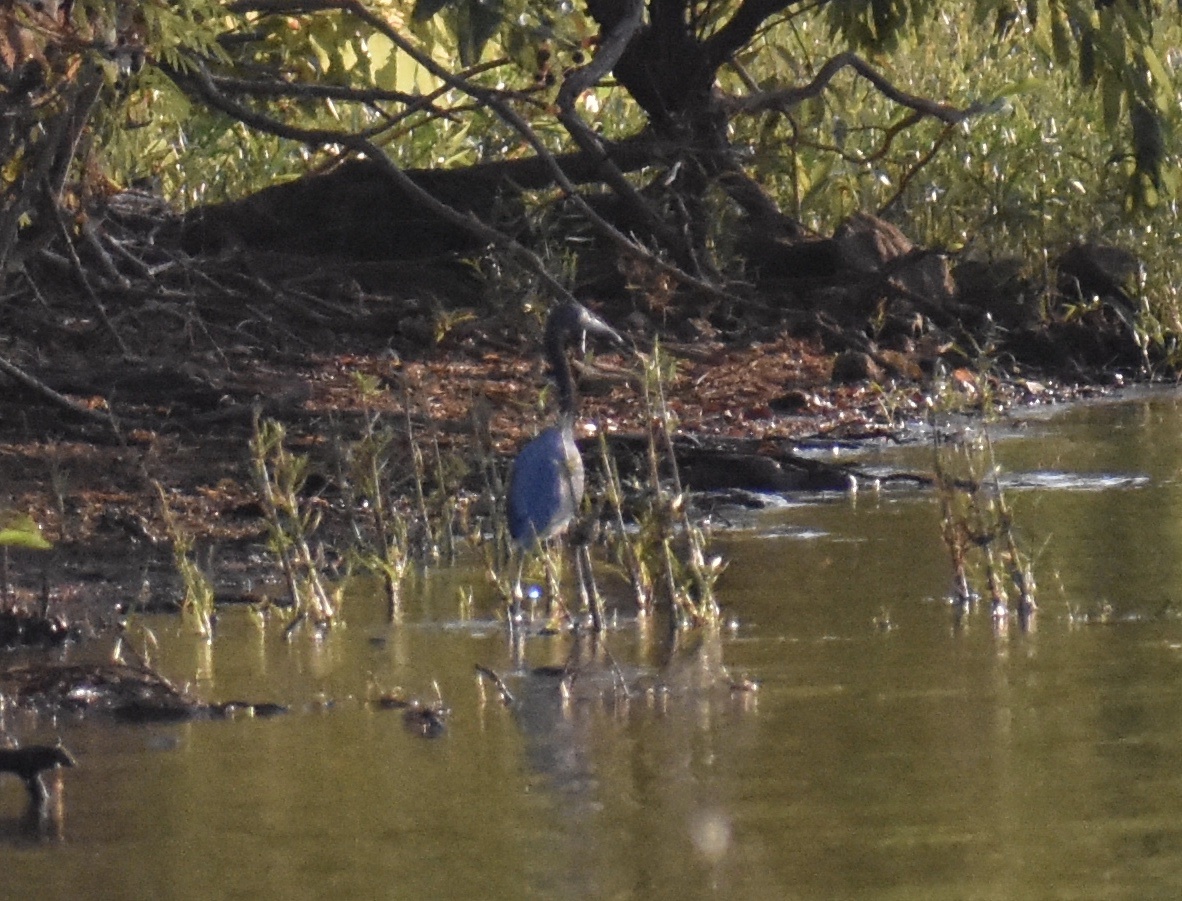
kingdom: Animalia
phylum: Chordata
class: Aves
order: Pelecaniformes
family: Ardeidae
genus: Egretta
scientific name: Egretta caerulea
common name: Little blue heron
